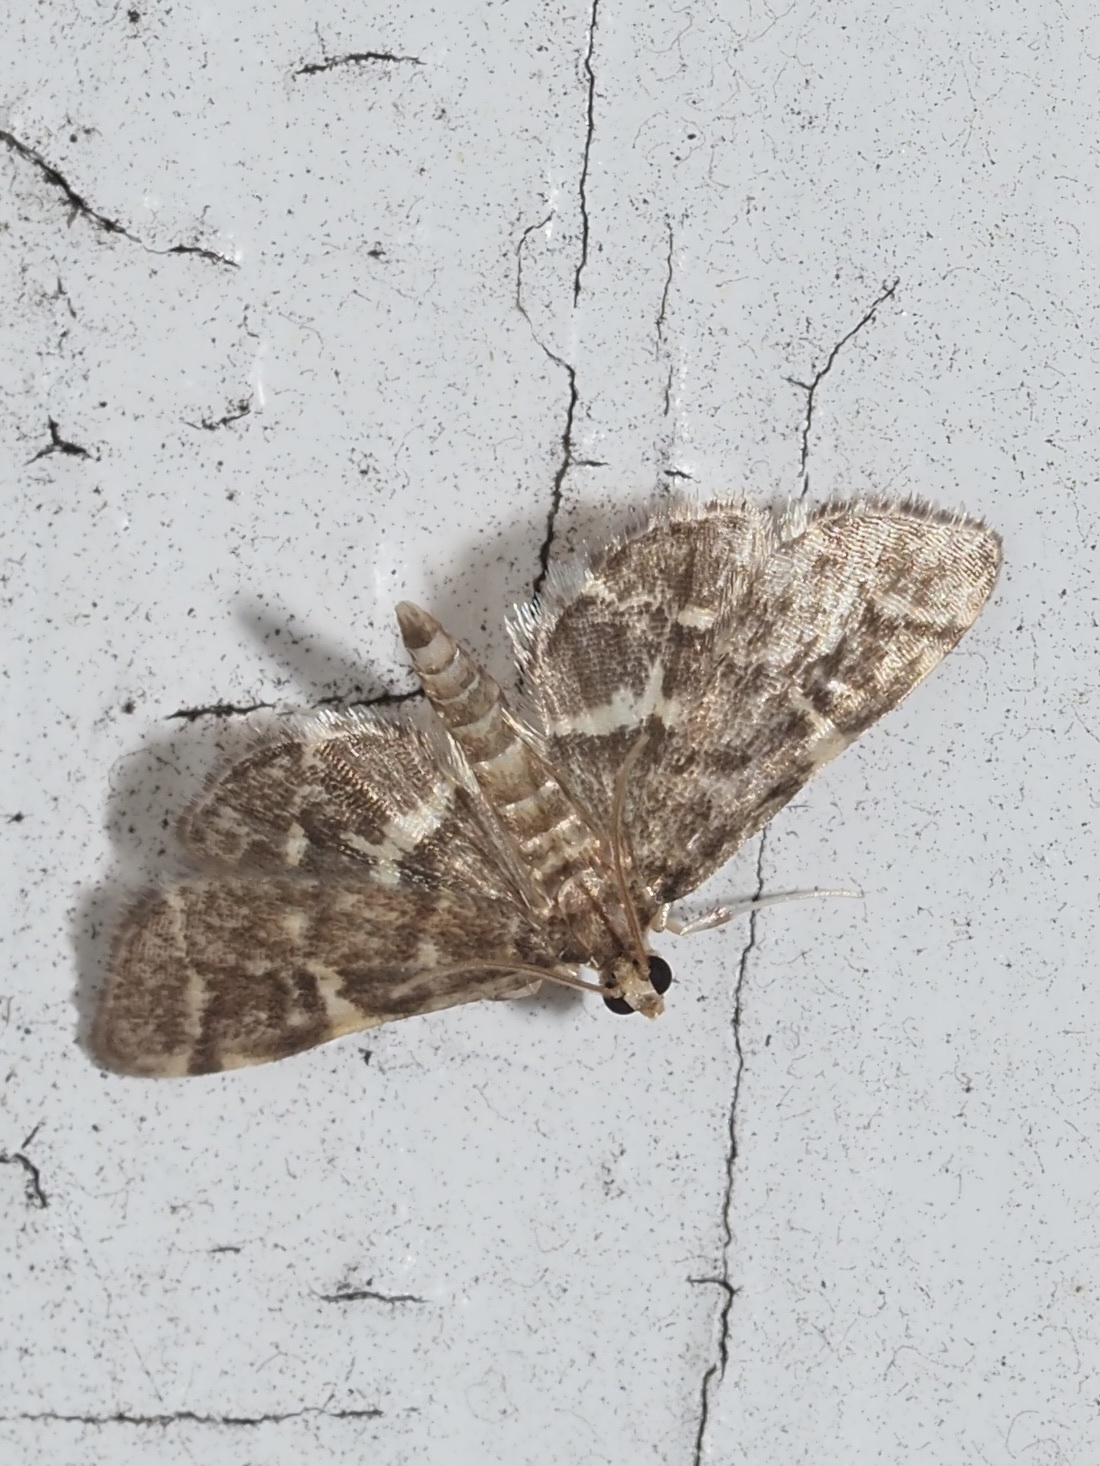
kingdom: Animalia
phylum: Arthropoda
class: Insecta
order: Lepidoptera
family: Crambidae
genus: Anageshna
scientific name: Anageshna primordialis
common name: Yellow-spotted webworm moth
